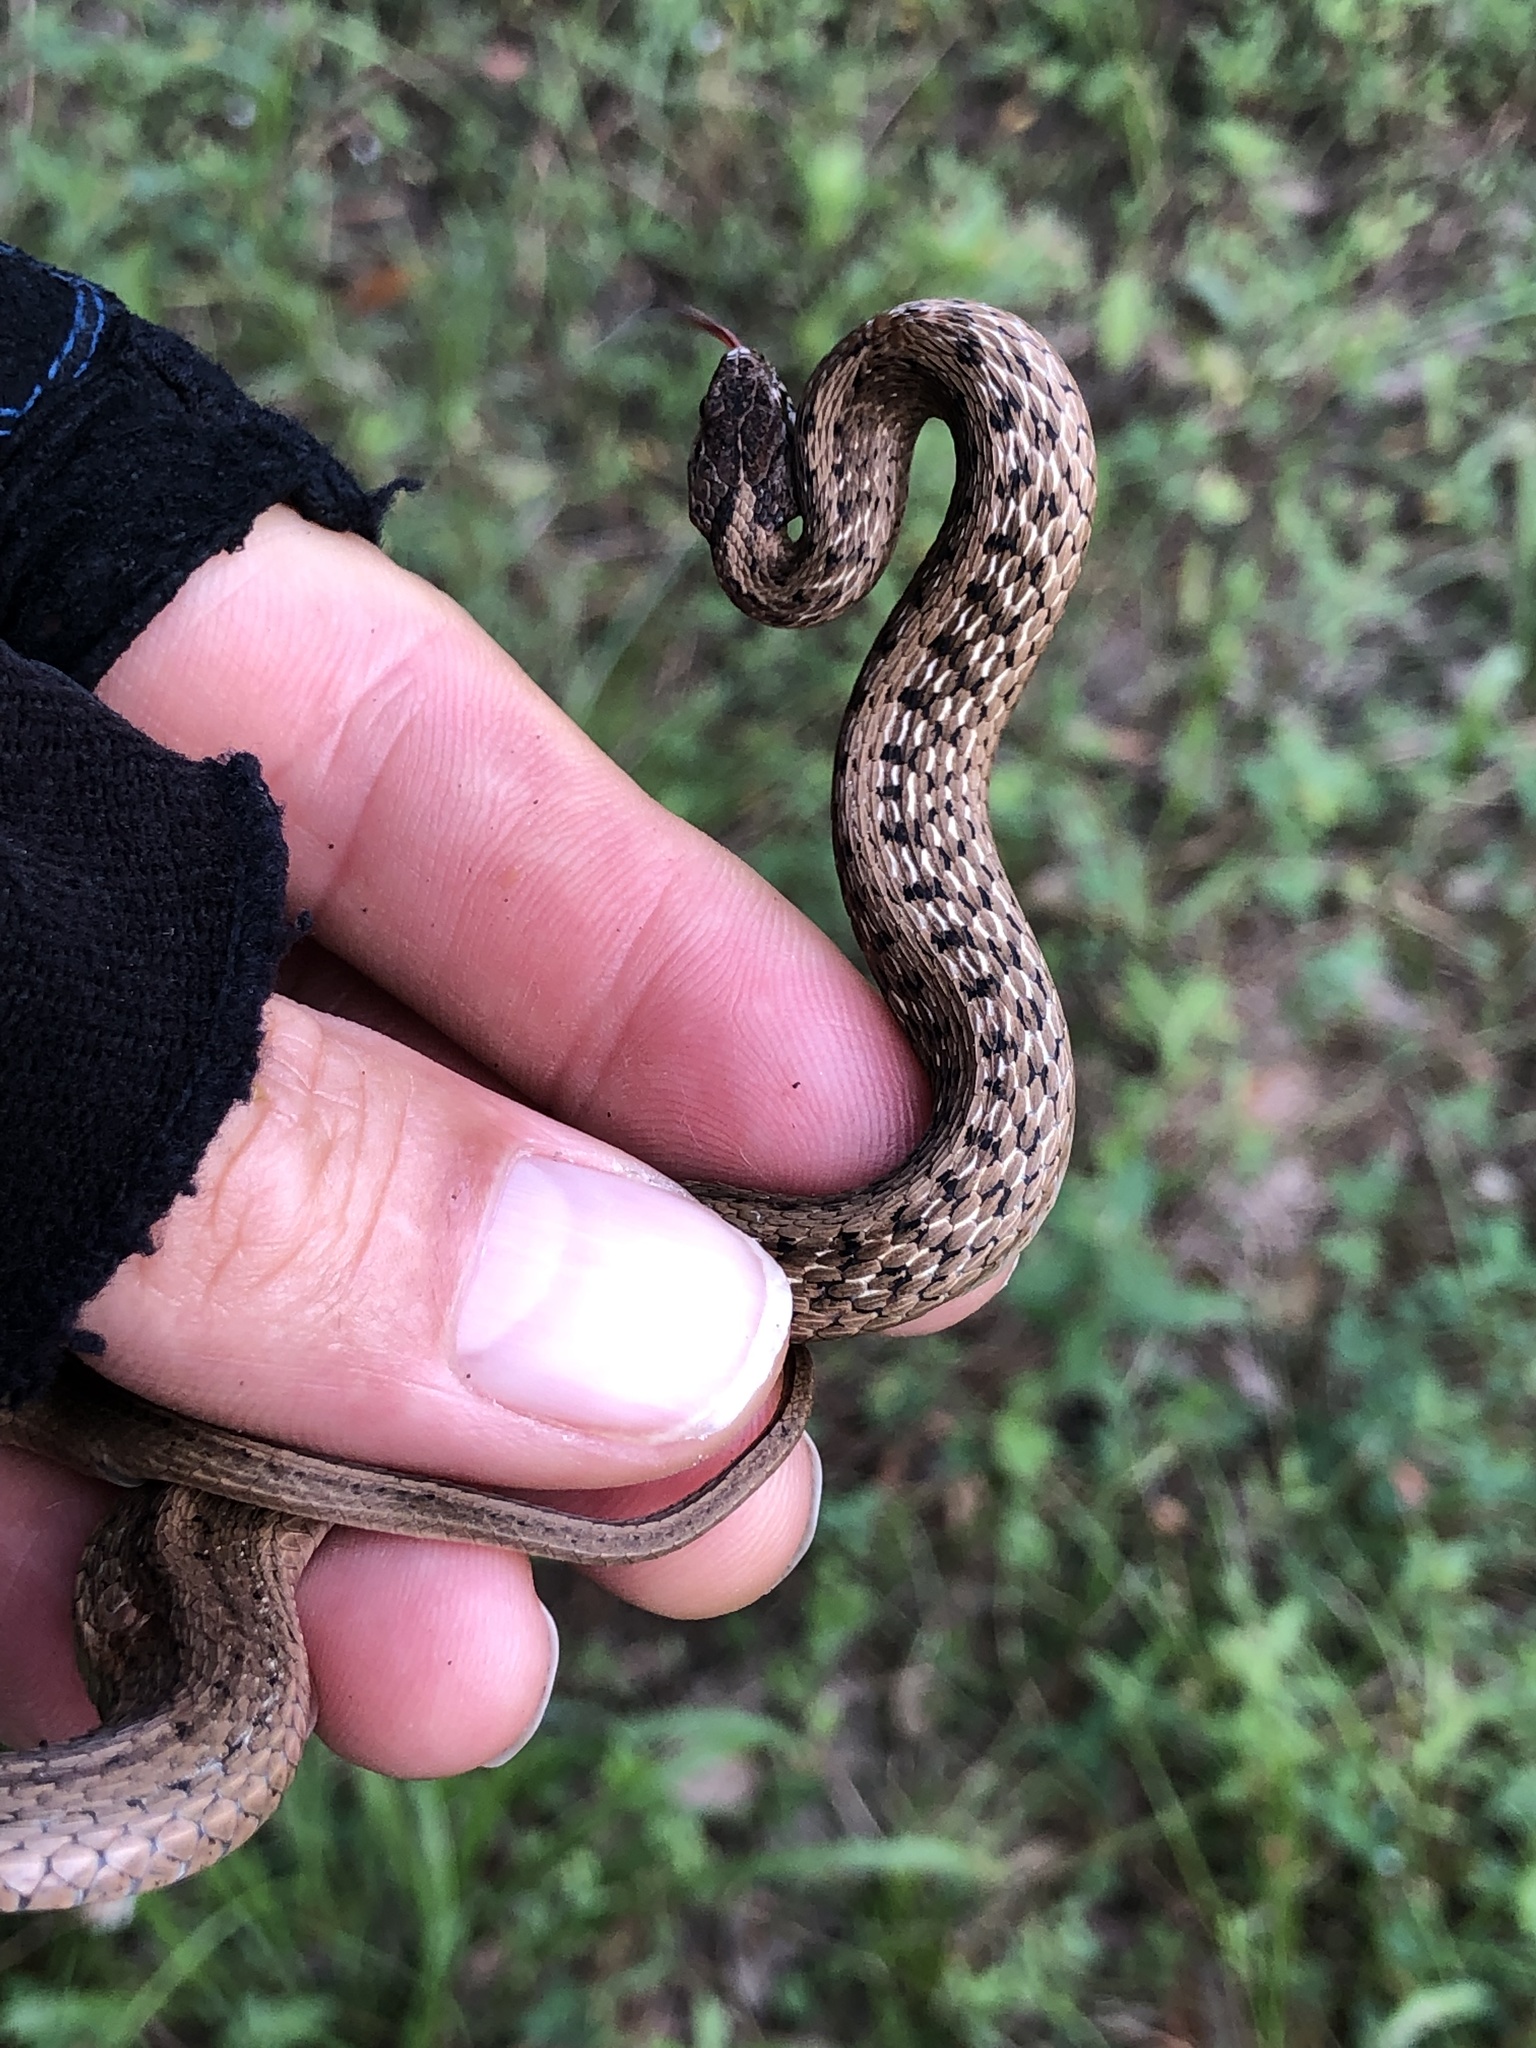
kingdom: Animalia
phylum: Chordata
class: Squamata
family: Colubridae
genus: Storeria
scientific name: Storeria dekayi
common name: (dekay’s) brown snake
